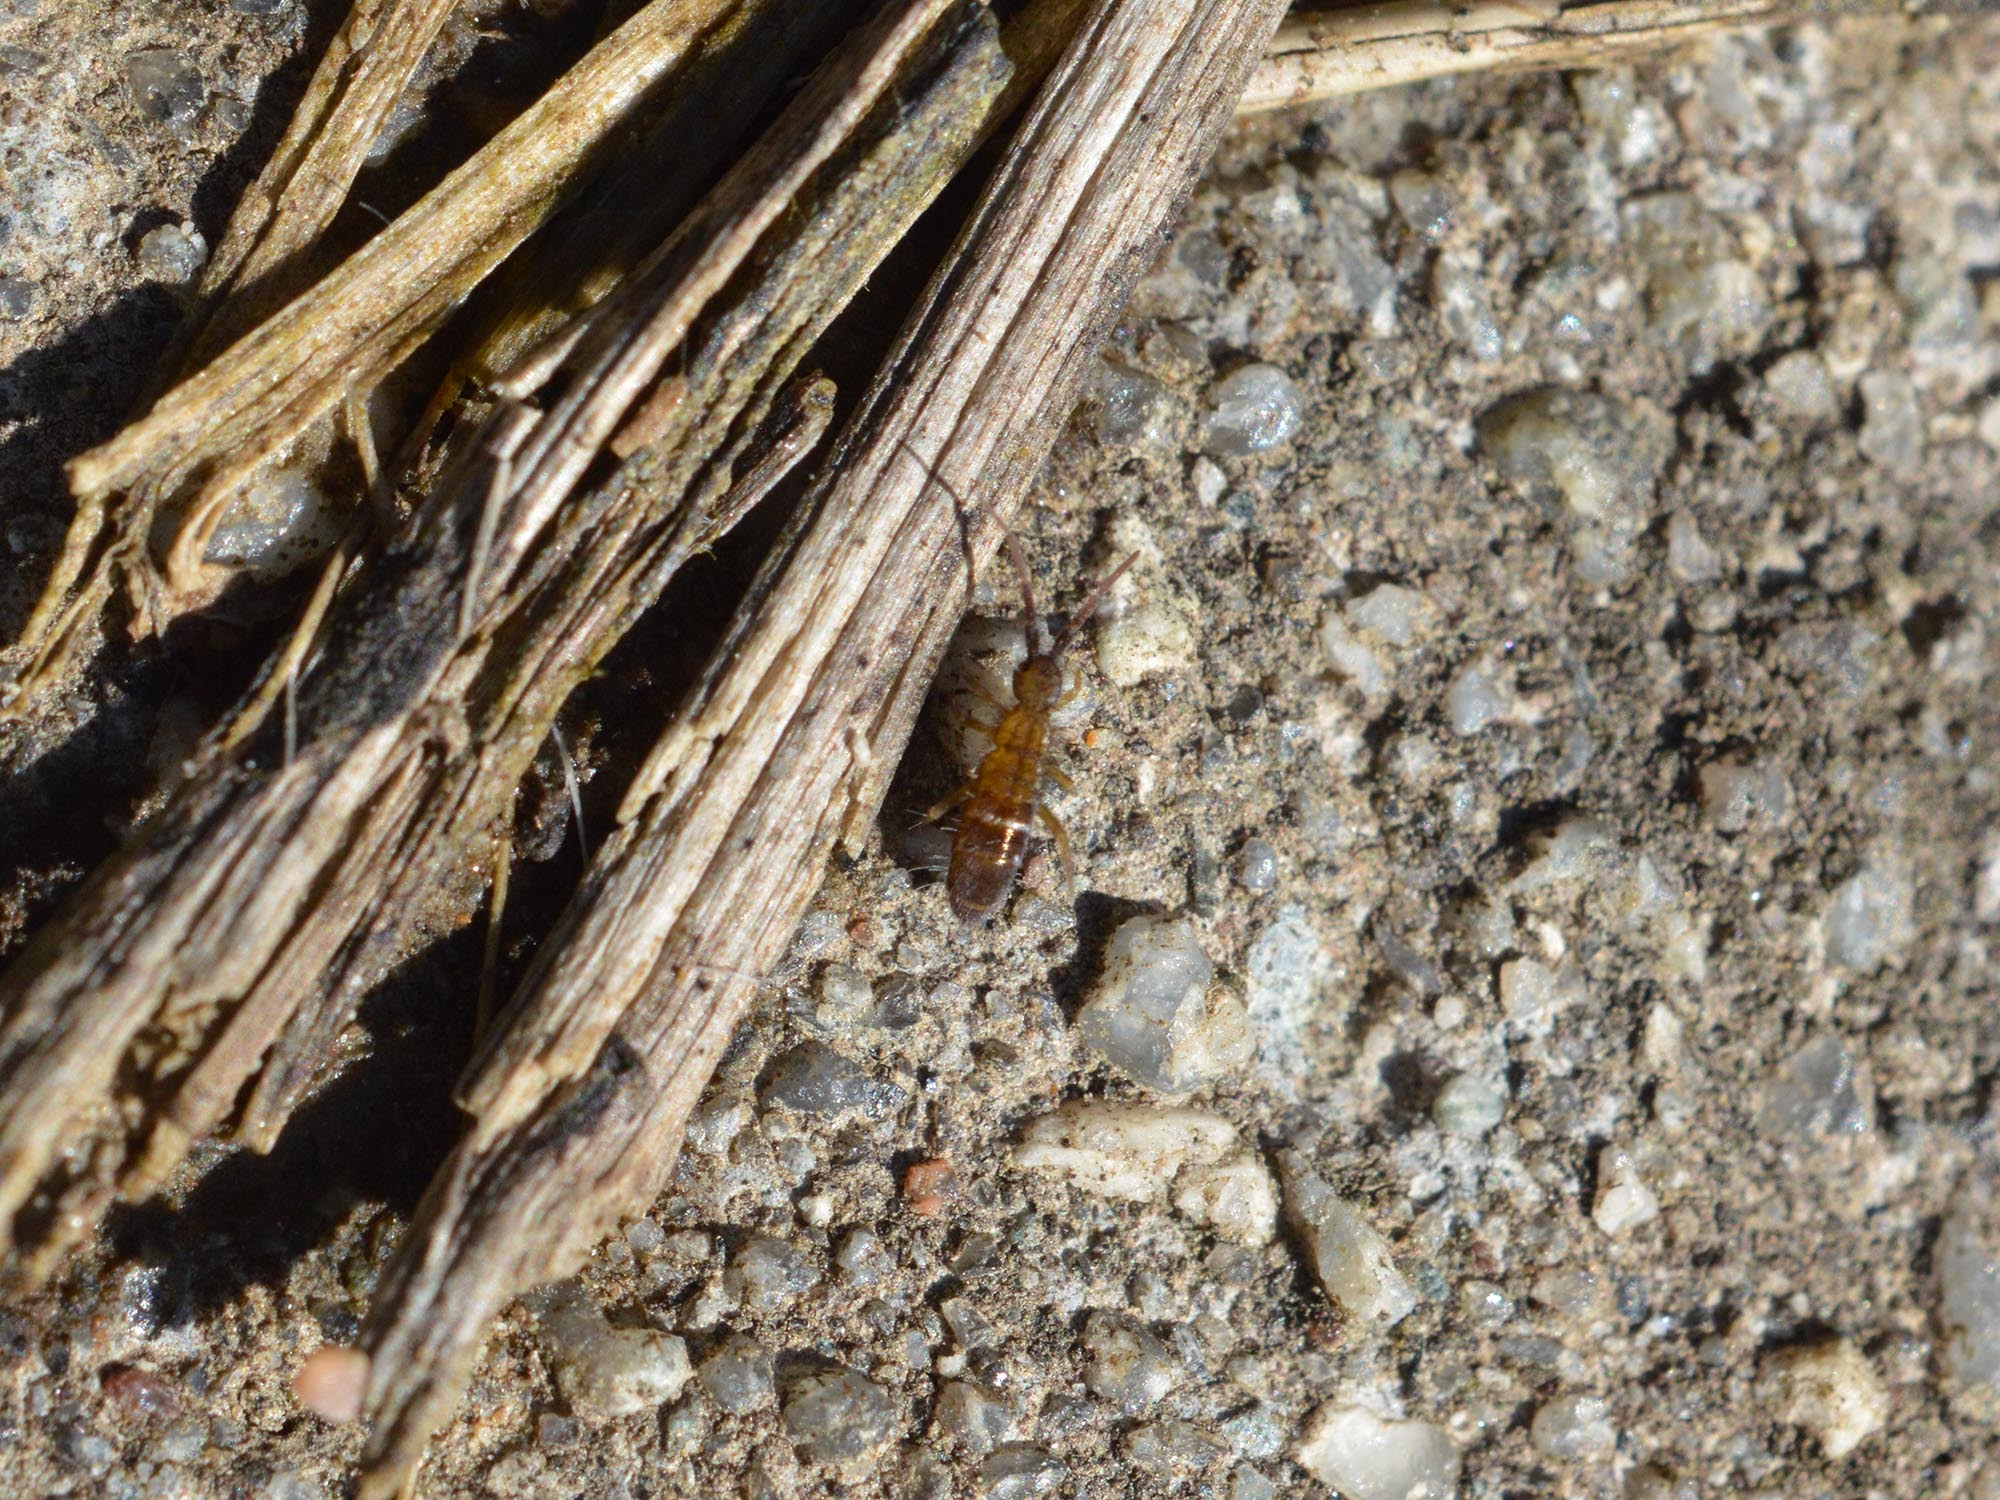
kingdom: Animalia
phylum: Arthropoda
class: Collembola
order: Entomobryomorpha
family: Orchesellidae
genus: Orchesella
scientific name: Orchesella bifasciata
